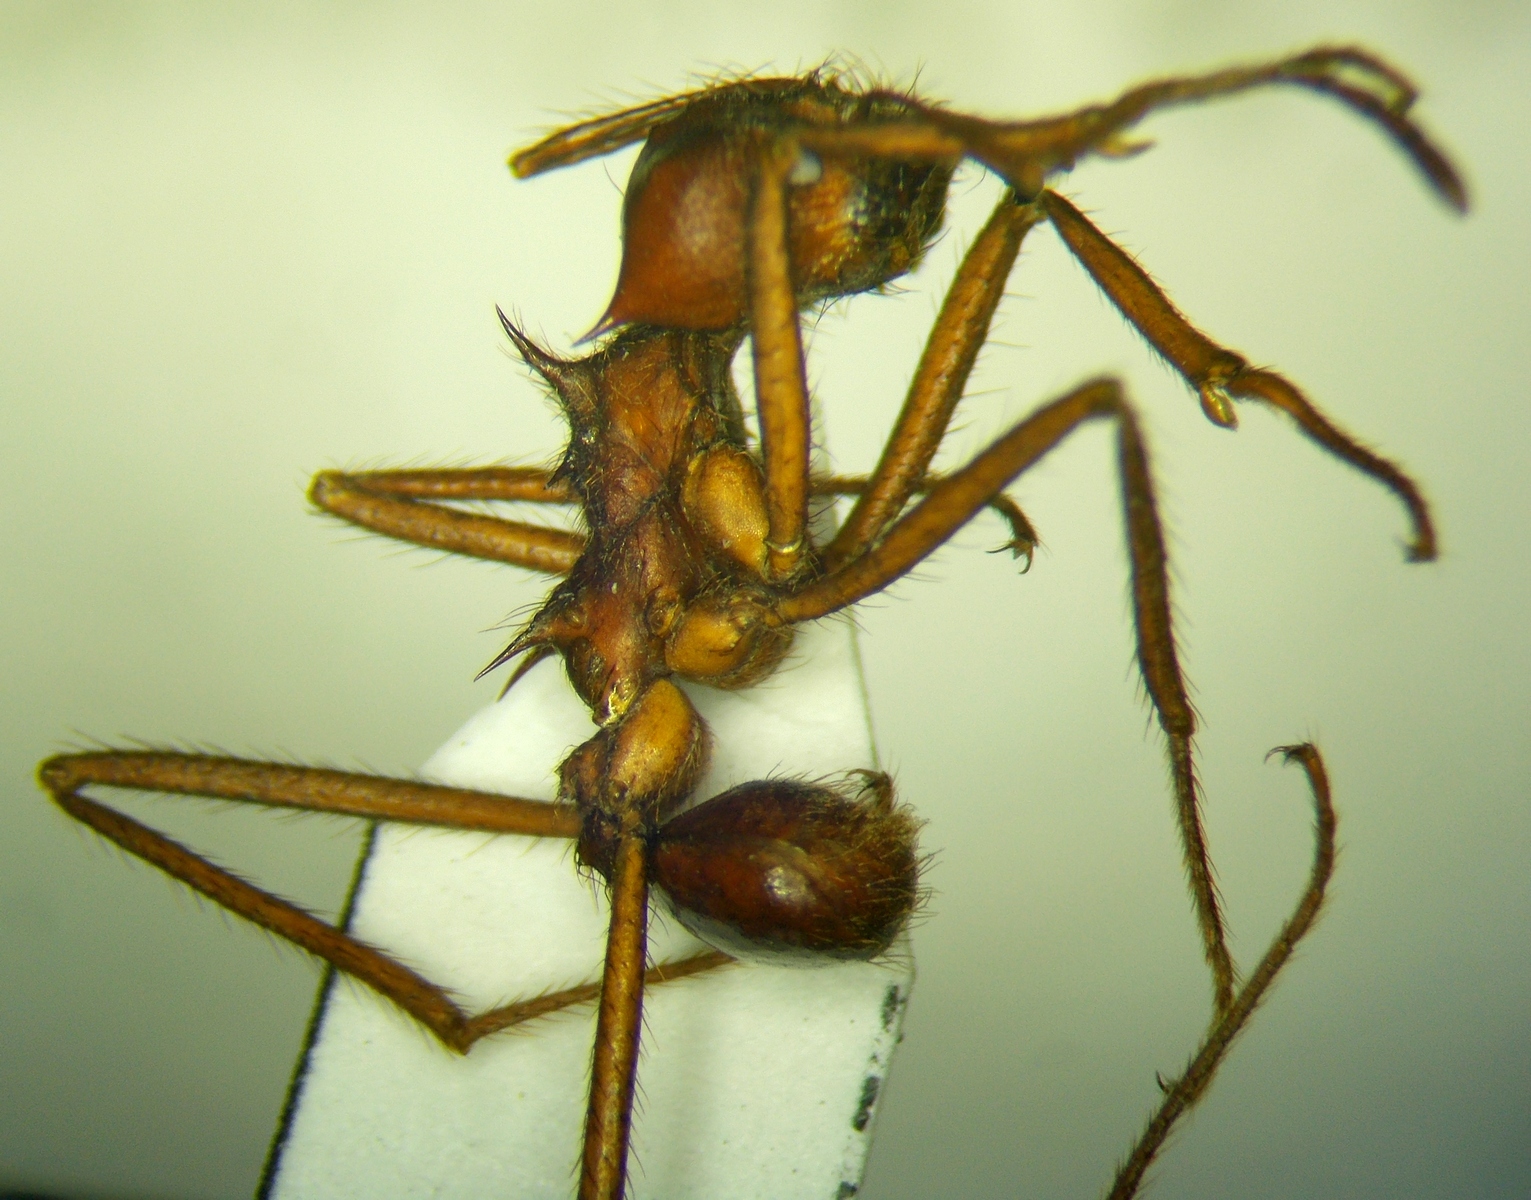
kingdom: Animalia
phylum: Arthropoda
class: Insecta
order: Hymenoptera
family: Formicidae
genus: Atta
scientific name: Atta mexicana
